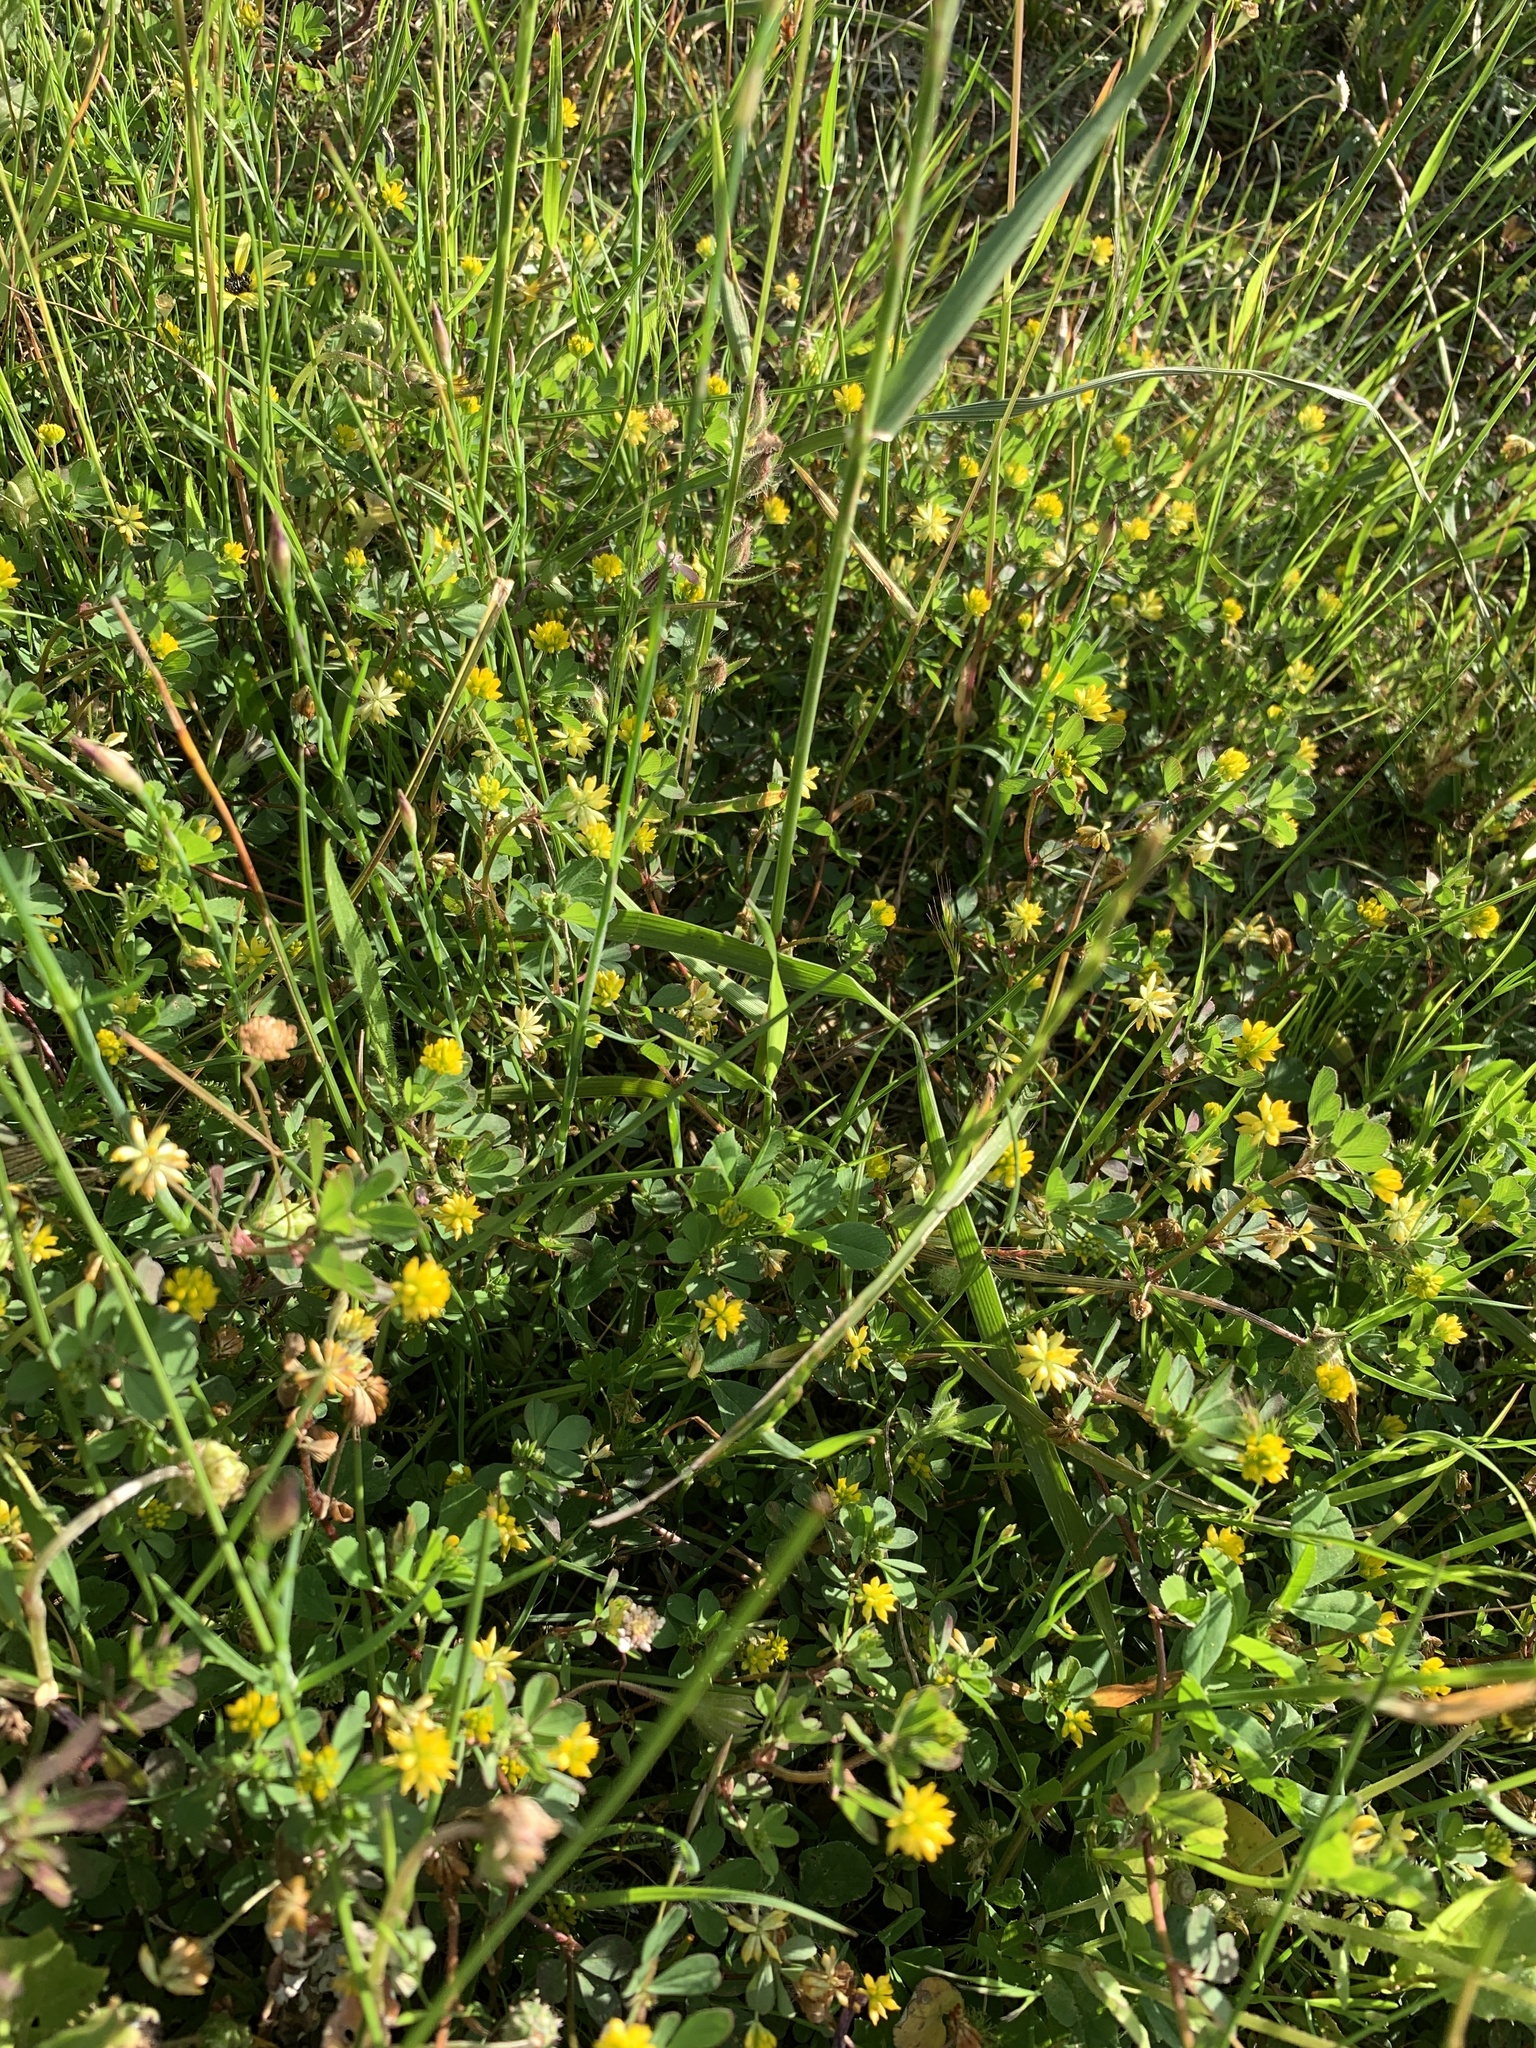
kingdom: Plantae
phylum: Tracheophyta
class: Magnoliopsida
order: Fabales
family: Fabaceae
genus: Trifolium
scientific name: Trifolium dubium
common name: Suckling clover
